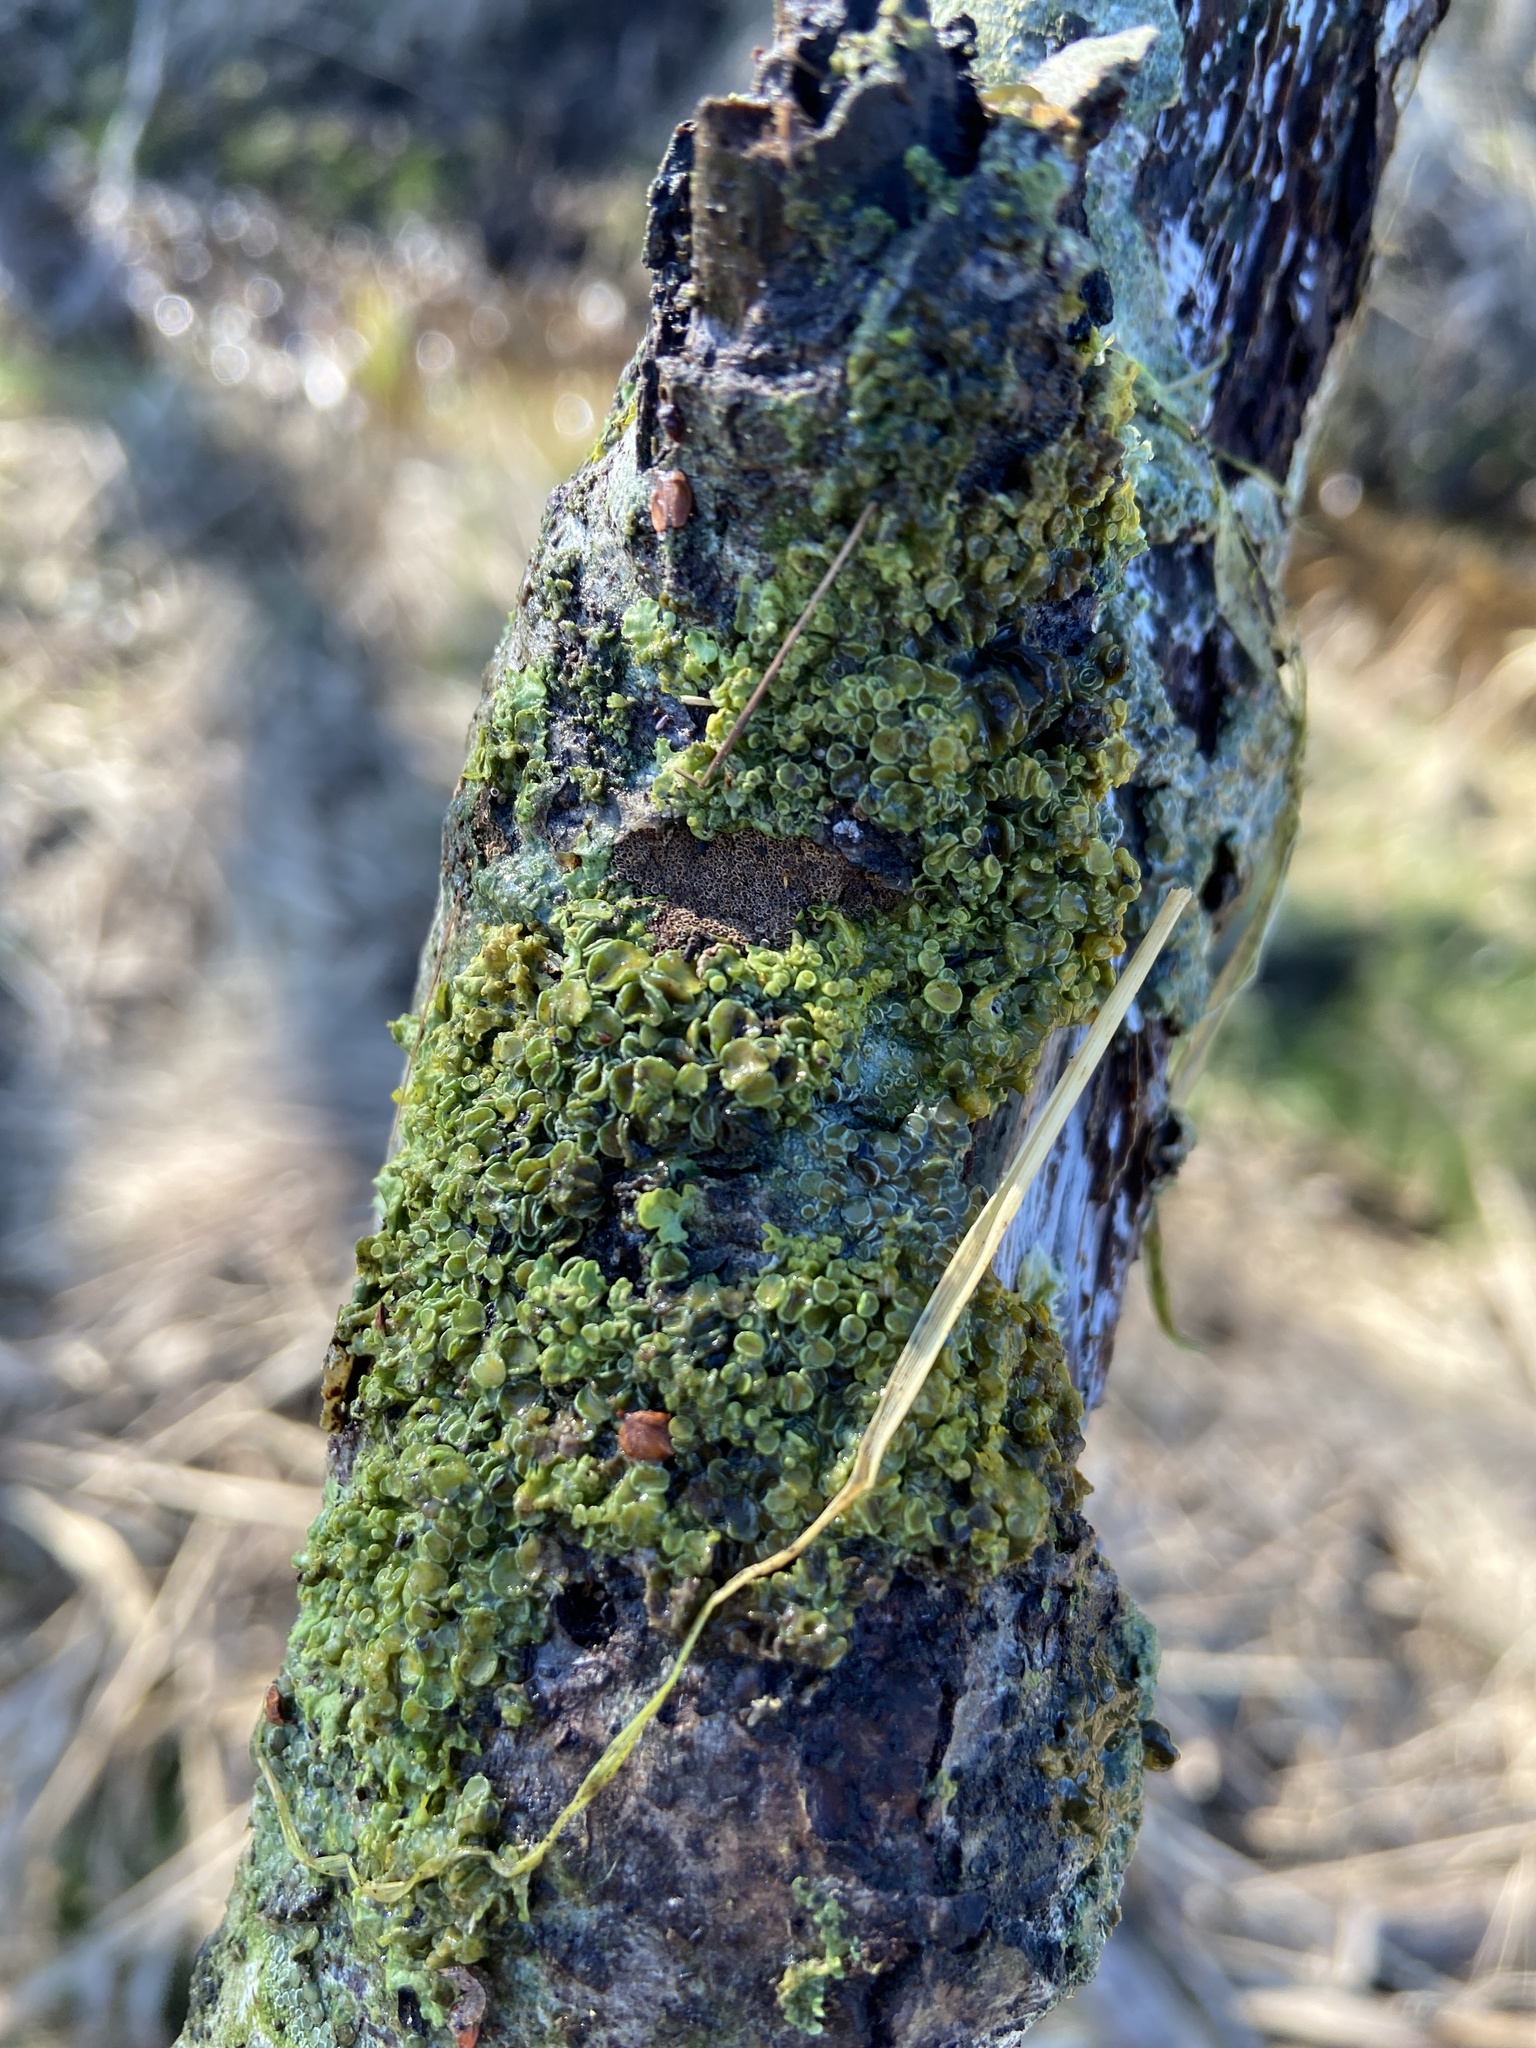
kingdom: Fungi
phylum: Ascomycota
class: Lecanoromycetes
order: Teloschistales
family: Teloschistaceae
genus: Xanthoria
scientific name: Xanthoria parietina
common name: Common orange lichen
